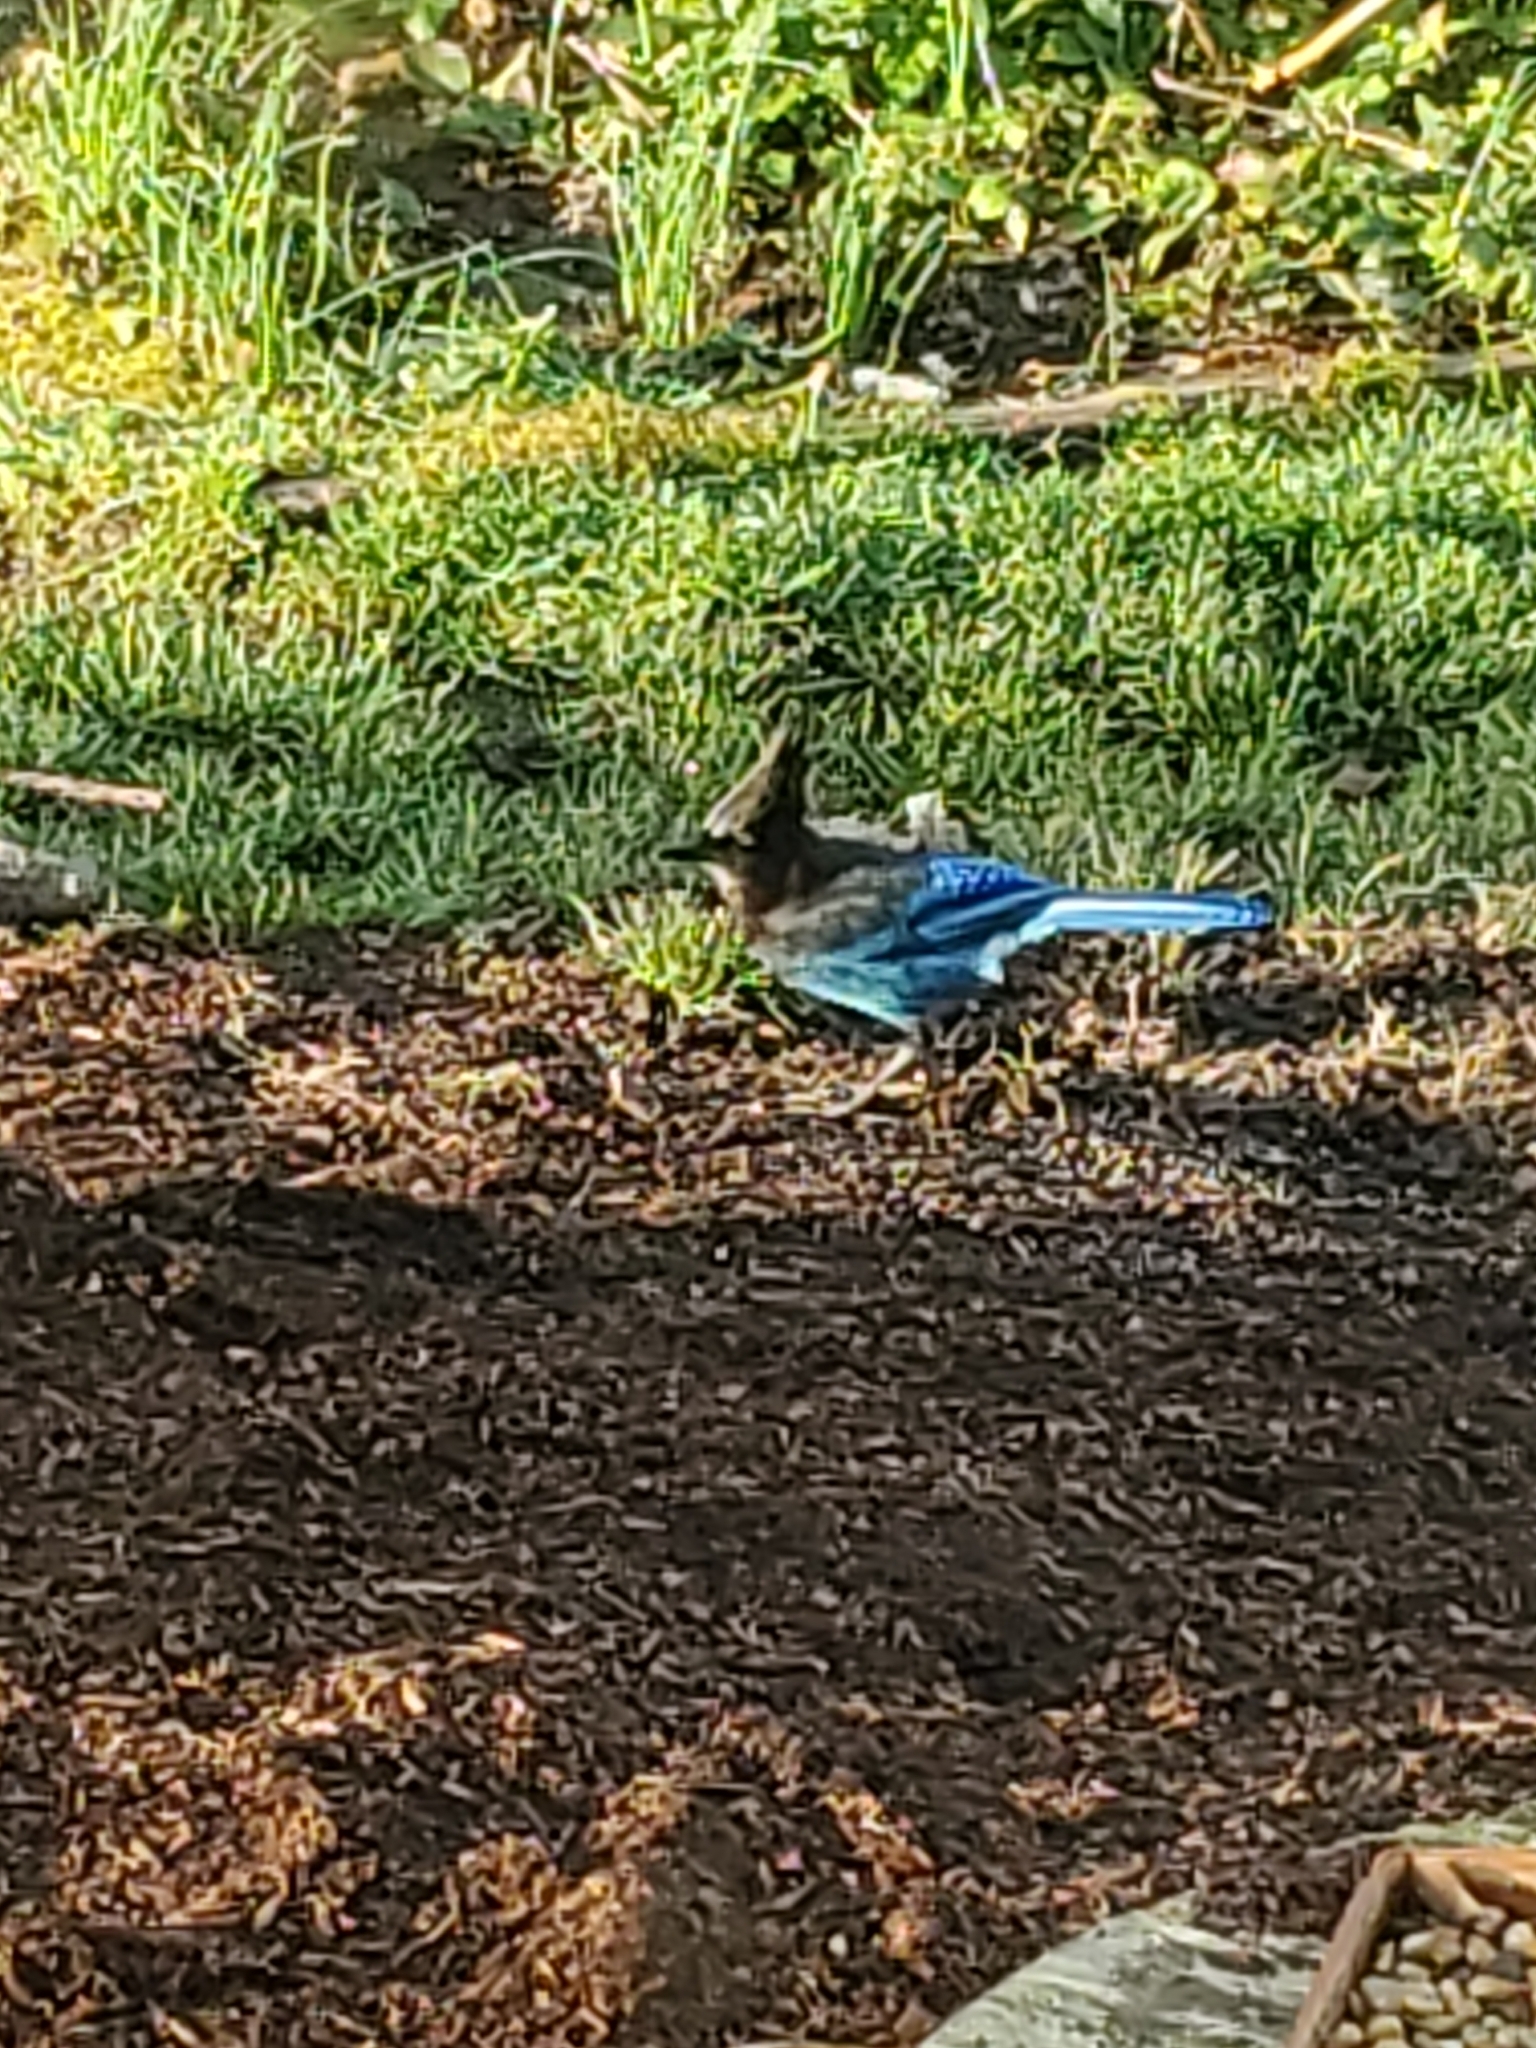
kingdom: Animalia
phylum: Chordata
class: Aves
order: Passeriformes
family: Corvidae
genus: Cyanocitta
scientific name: Cyanocitta stelleri
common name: Steller's jay
